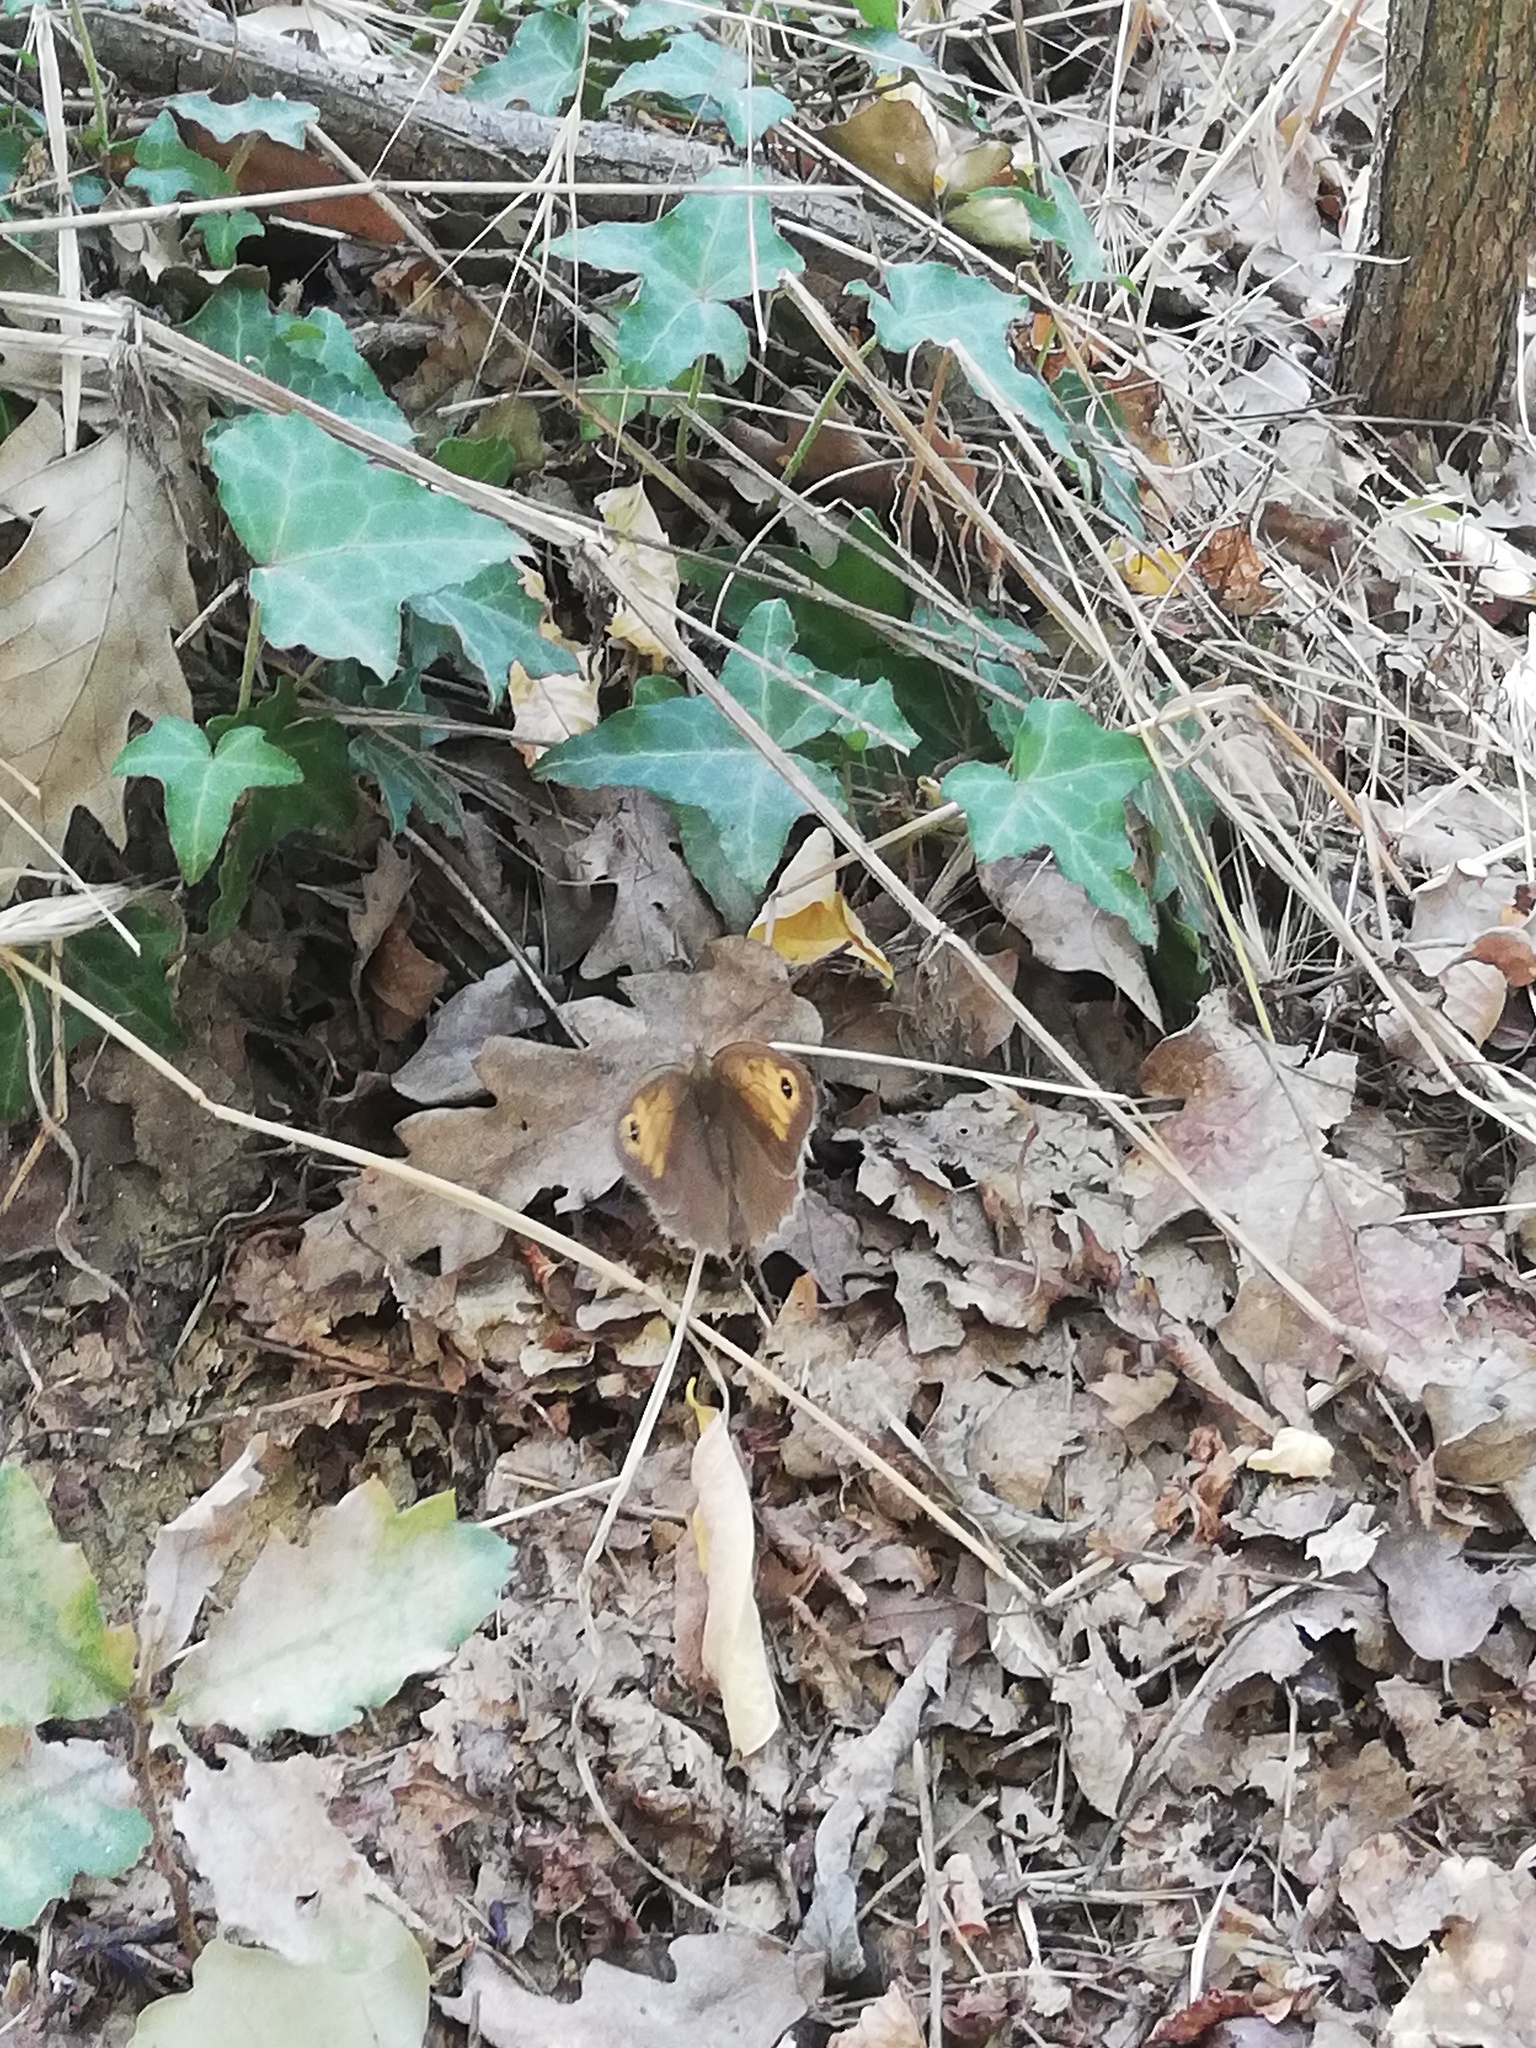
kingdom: Animalia
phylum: Arthropoda
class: Insecta
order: Lepidoptera
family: Nymphalidae
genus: Maniola
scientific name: Maniola jurtina
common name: Meadow brown
